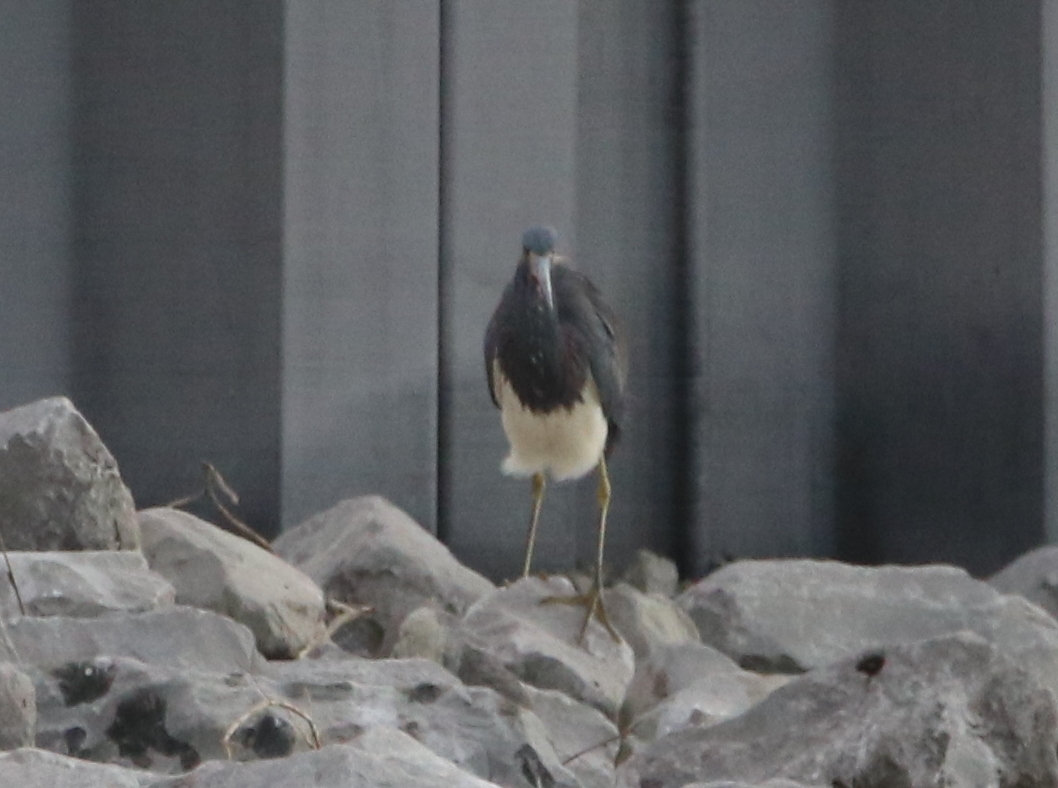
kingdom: Animalia
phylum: Chordata
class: Aves
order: Pelecaniformes
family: Ardeidae
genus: Egretta
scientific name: Egretta tricolor
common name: Tricolored heron
